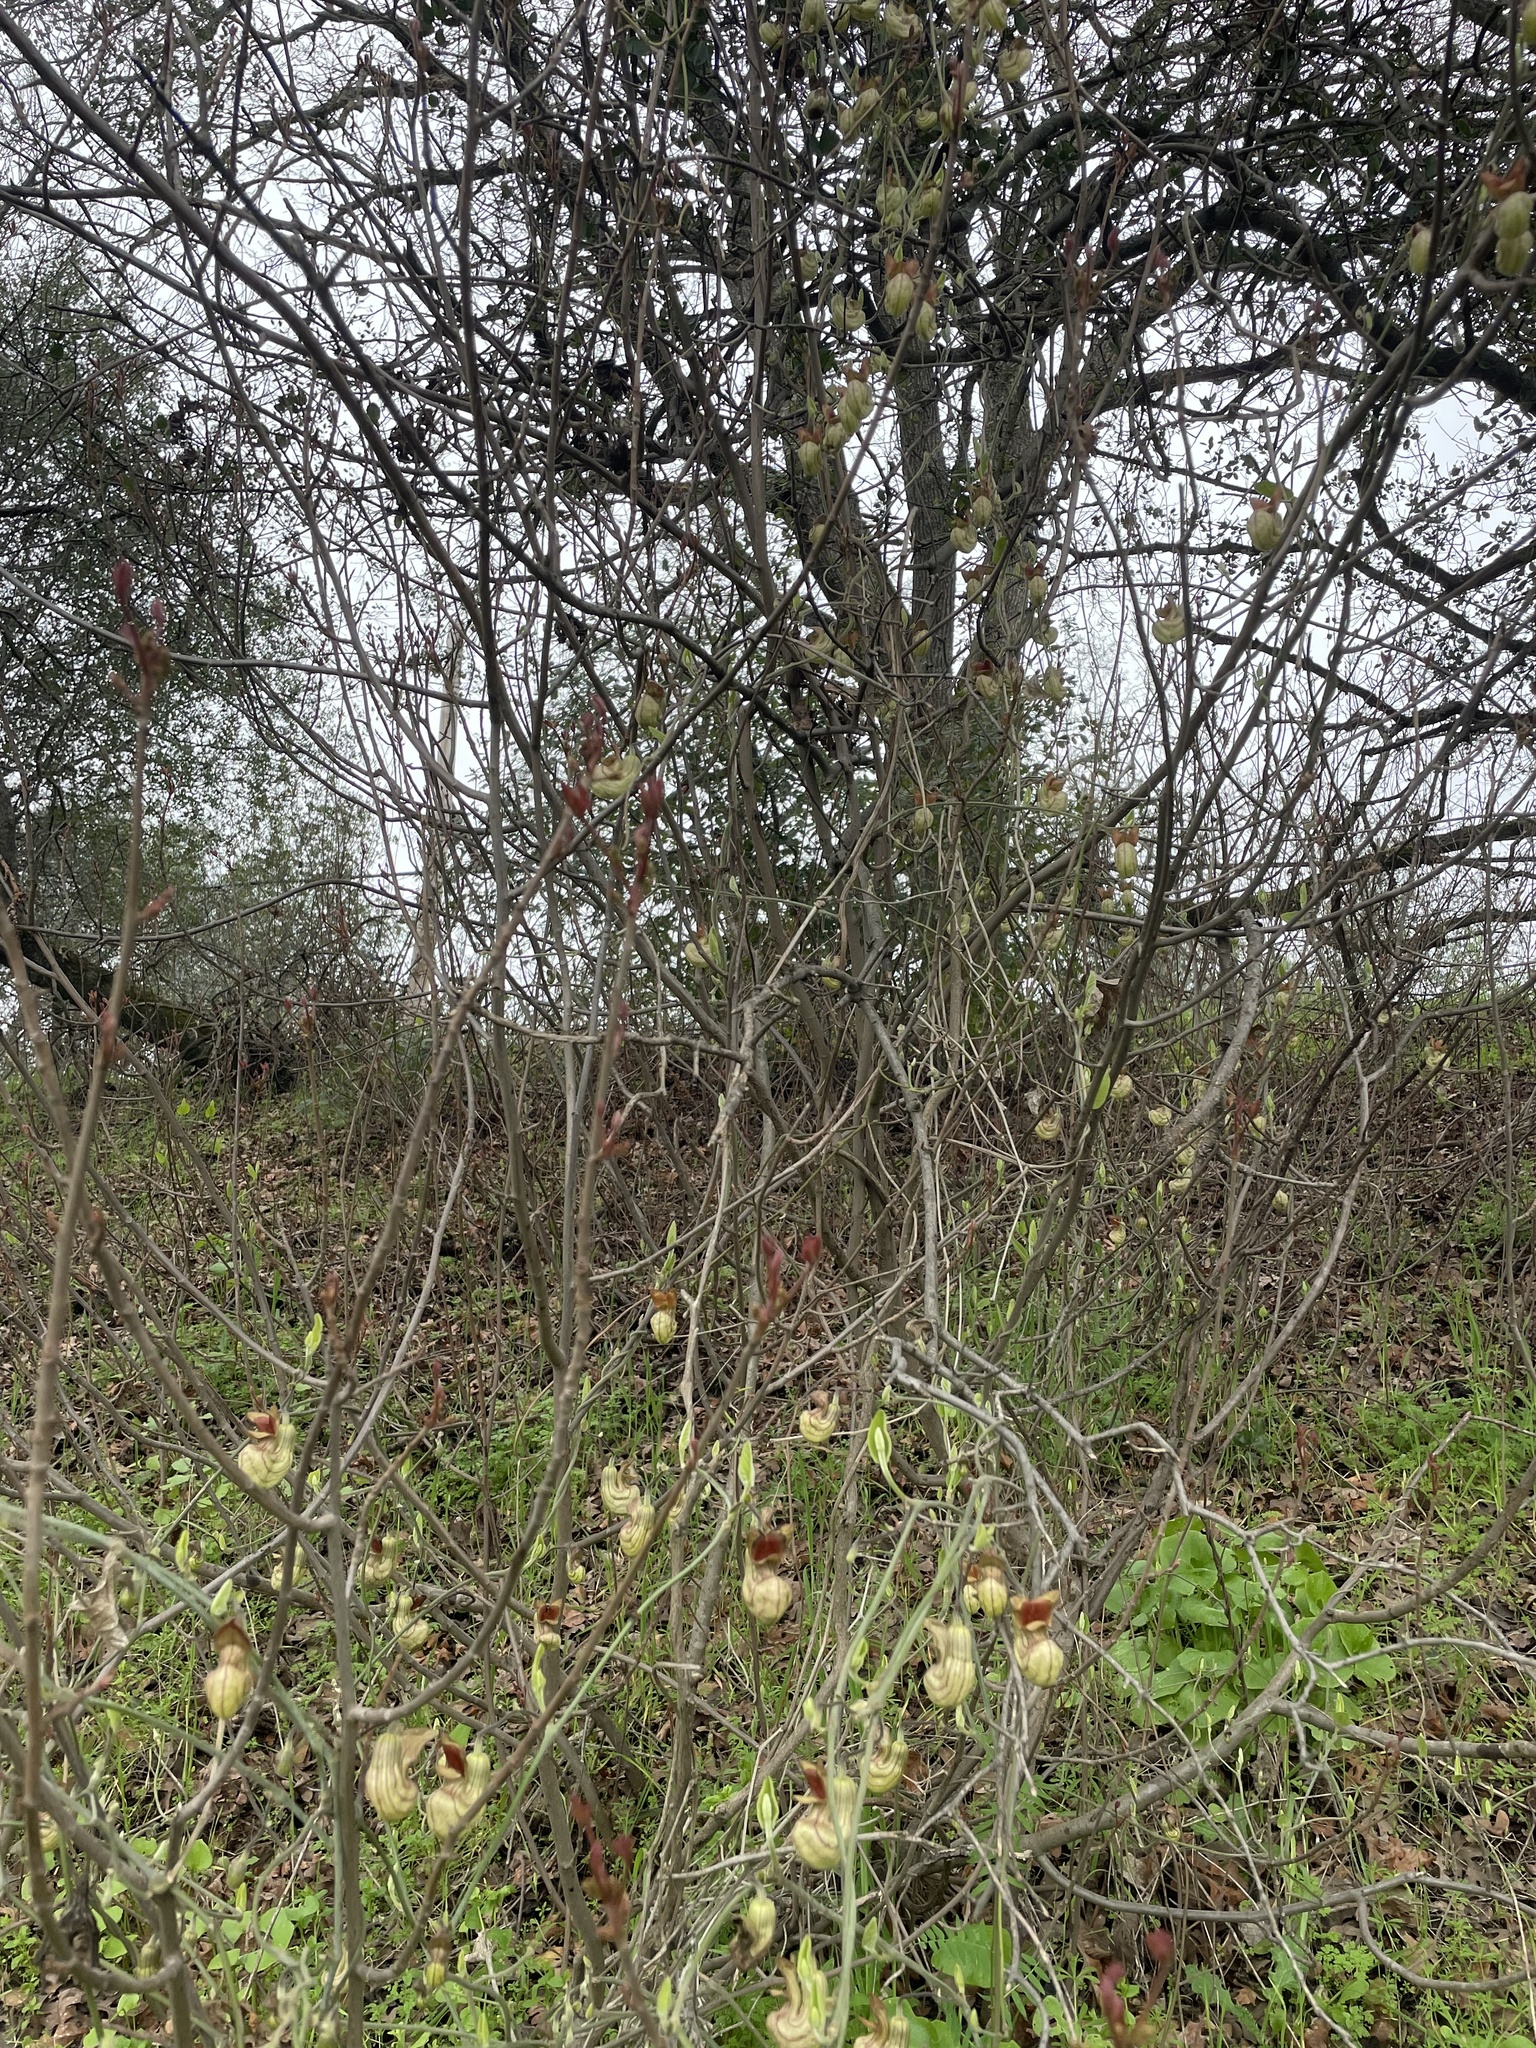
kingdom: Plantae
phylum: Tracheophyta
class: Magnoliopsida
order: Piperales
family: Aristolochiaceae
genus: Isotrema
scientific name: Isotrema californicum
